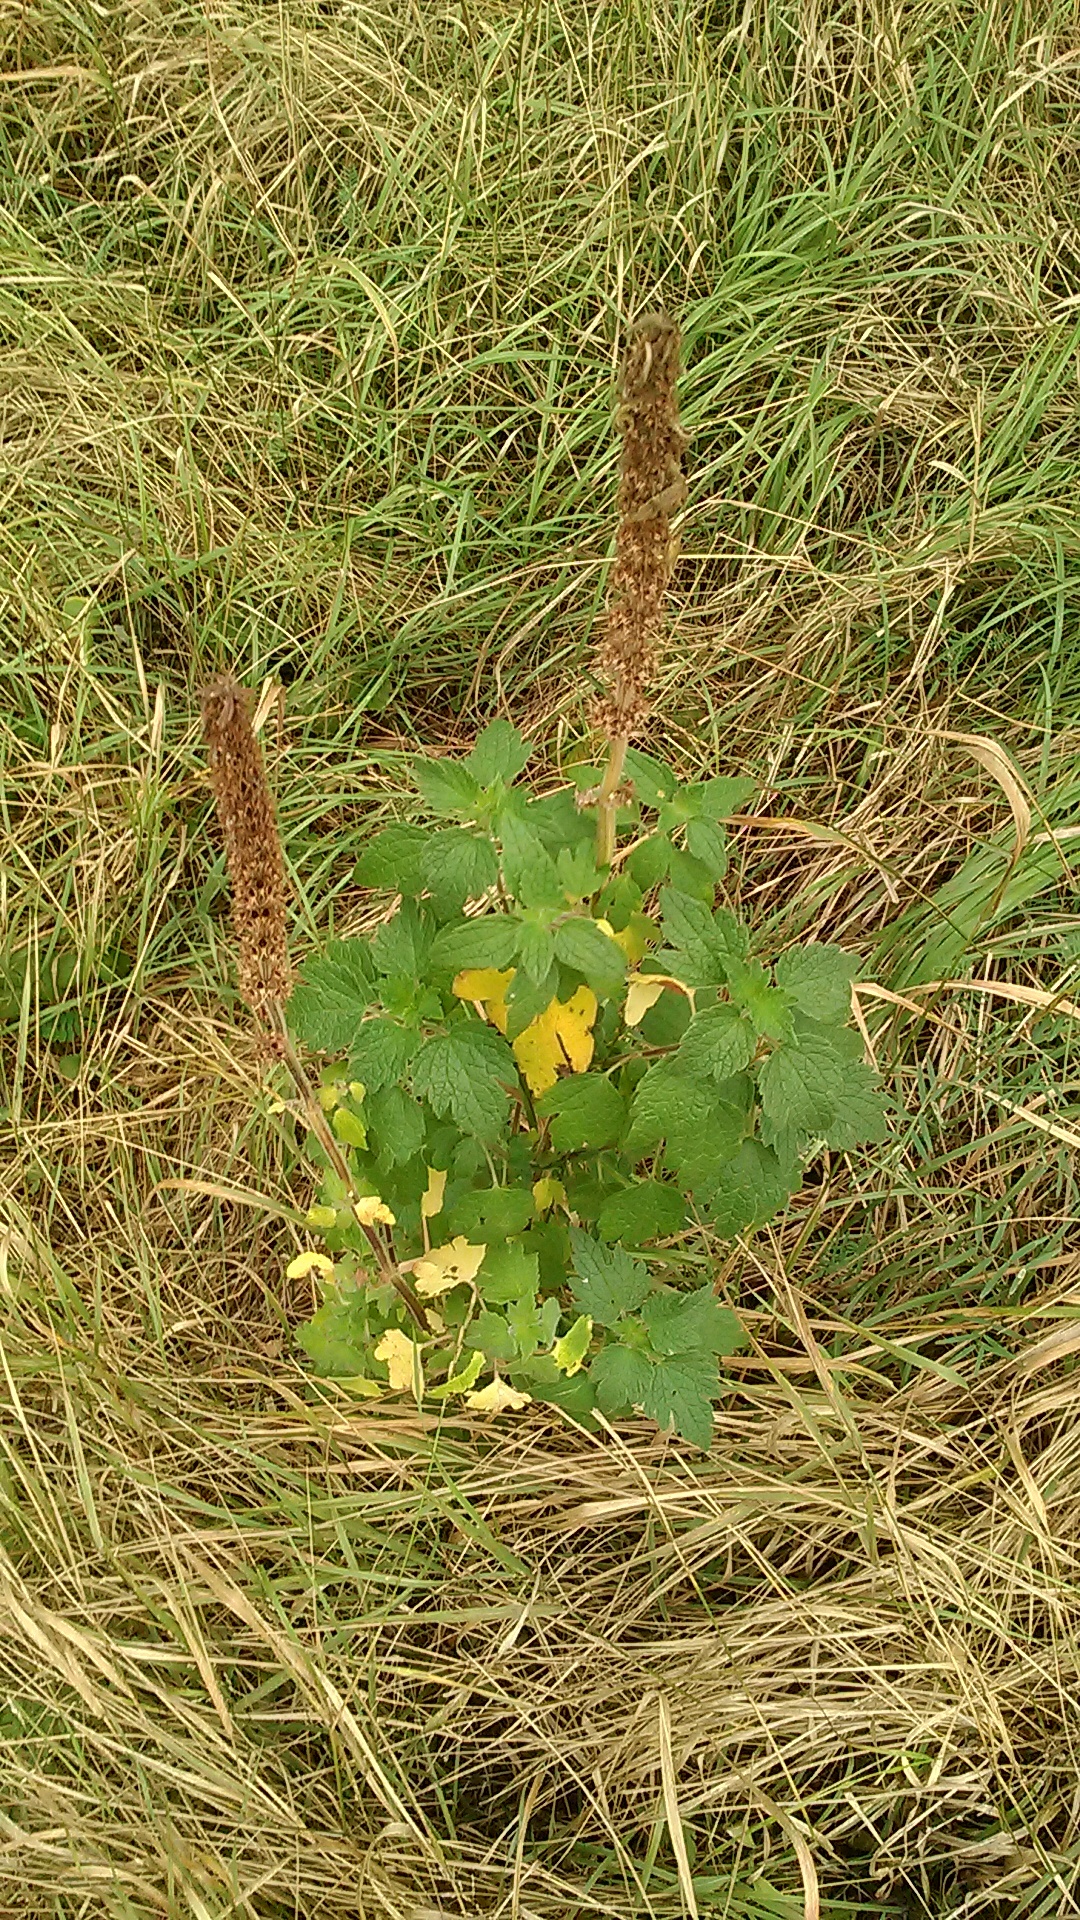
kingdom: Plantae
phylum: Tracheophyta
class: Magnoliopsida
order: Lamiales
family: Lamiaceae
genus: Leonurus
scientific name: Leonurus quinquelobatus
